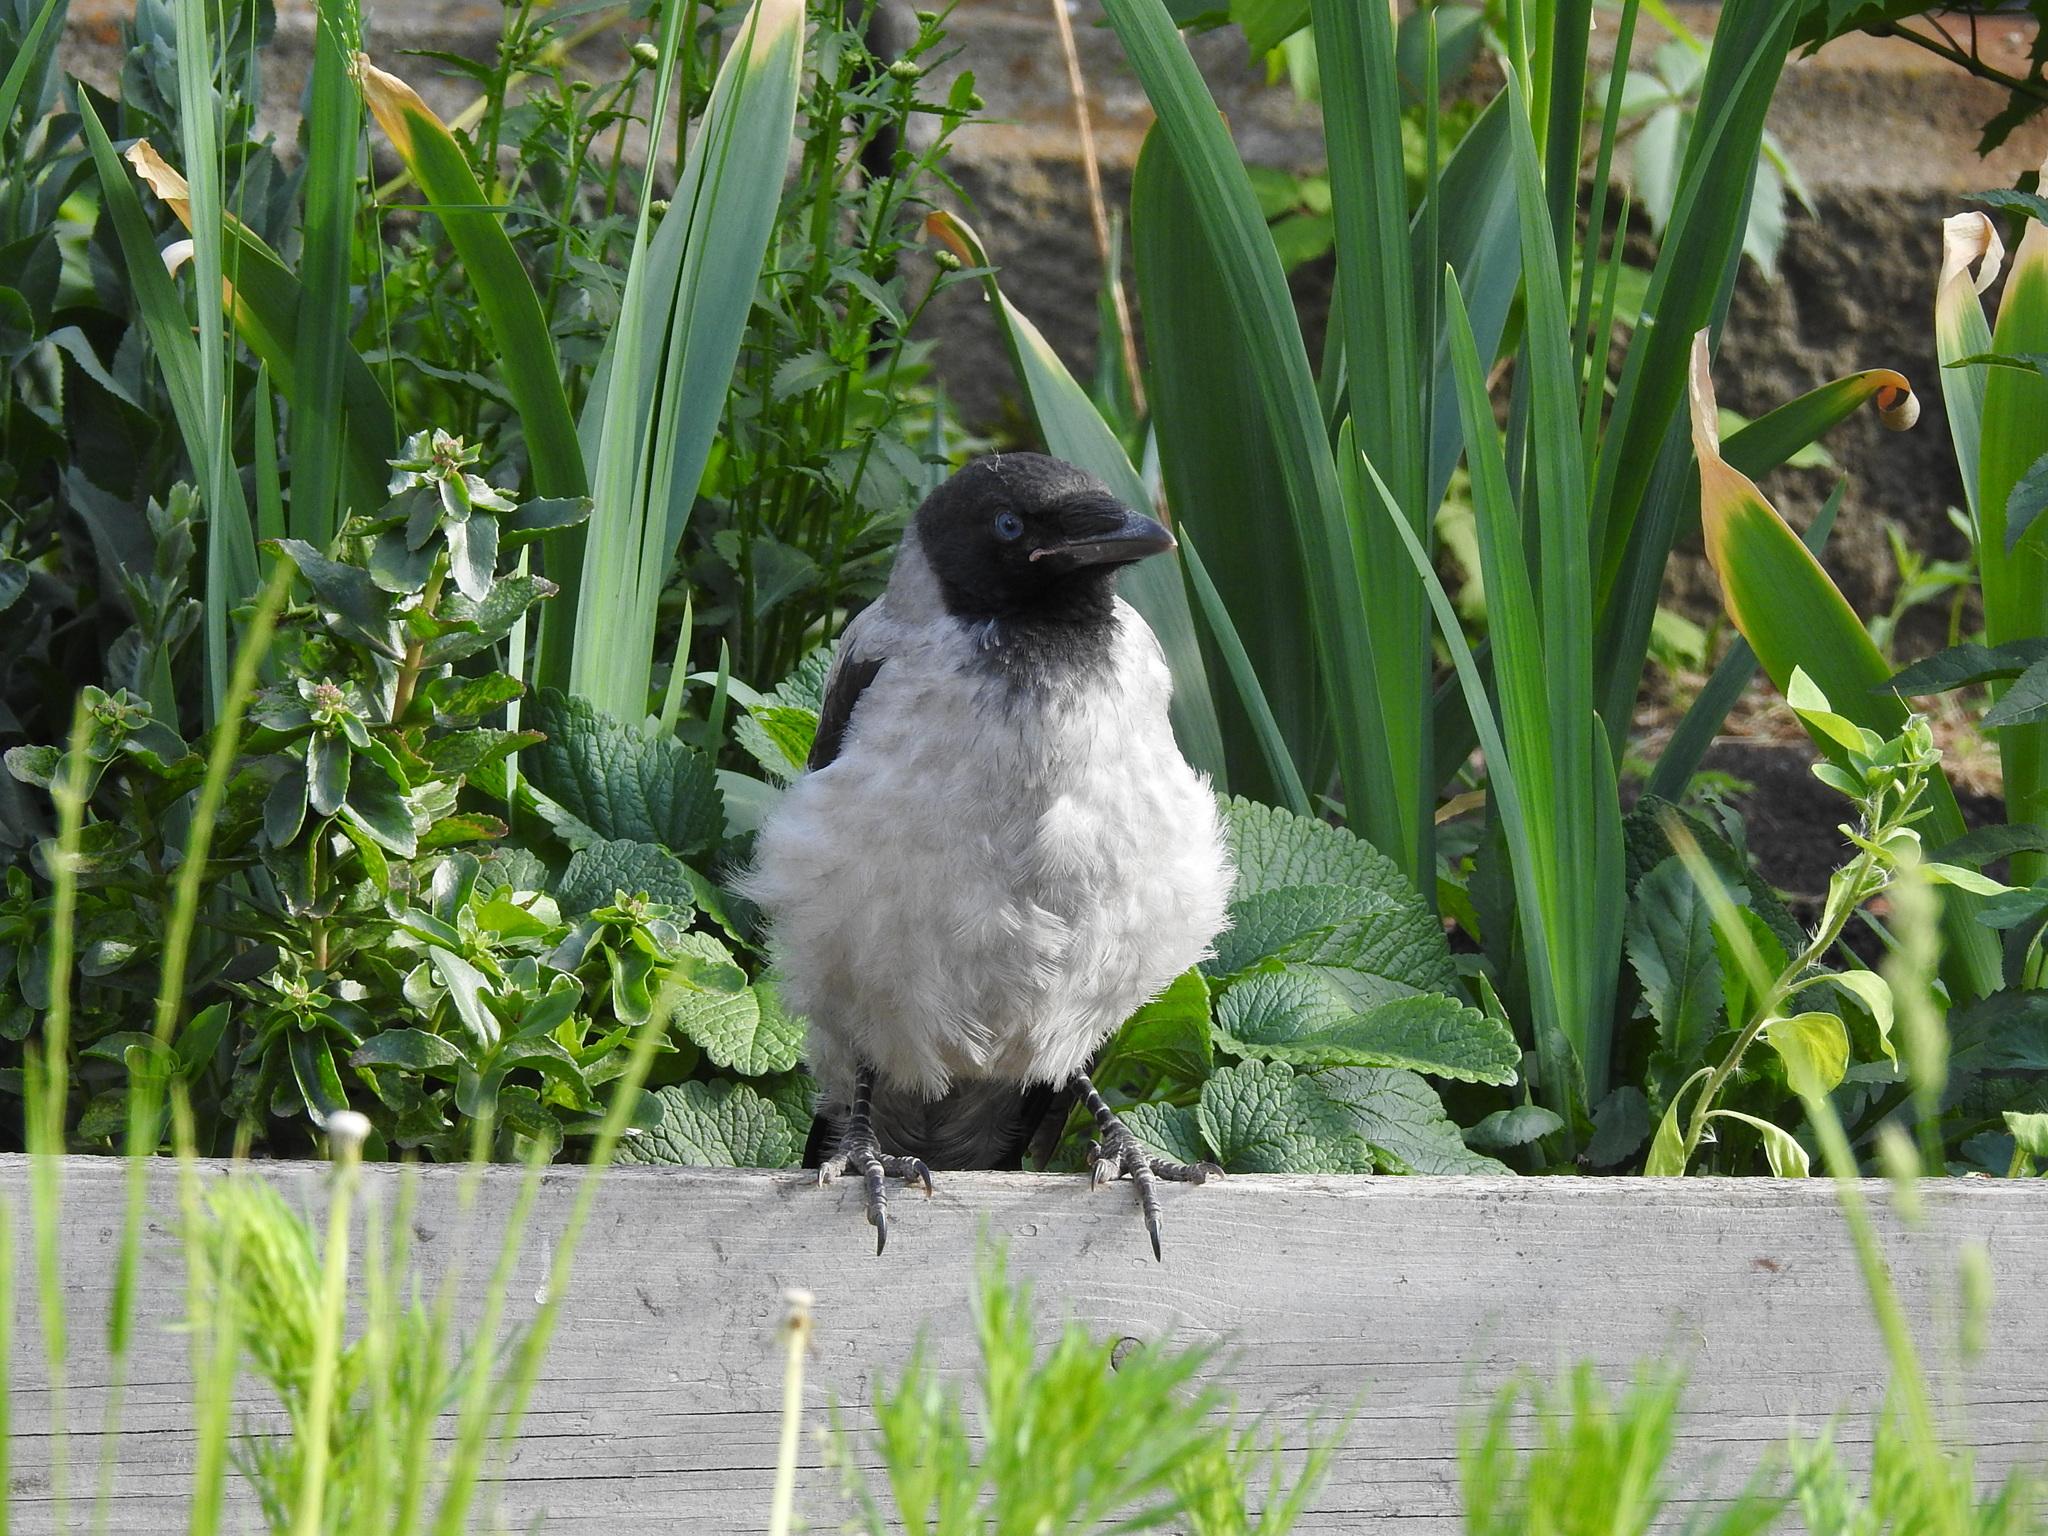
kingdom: Animalia
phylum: Chordata
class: Aves
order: Passeriformes
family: Corvidae
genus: Corvus
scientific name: Corvus cornix
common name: Hooded crow
